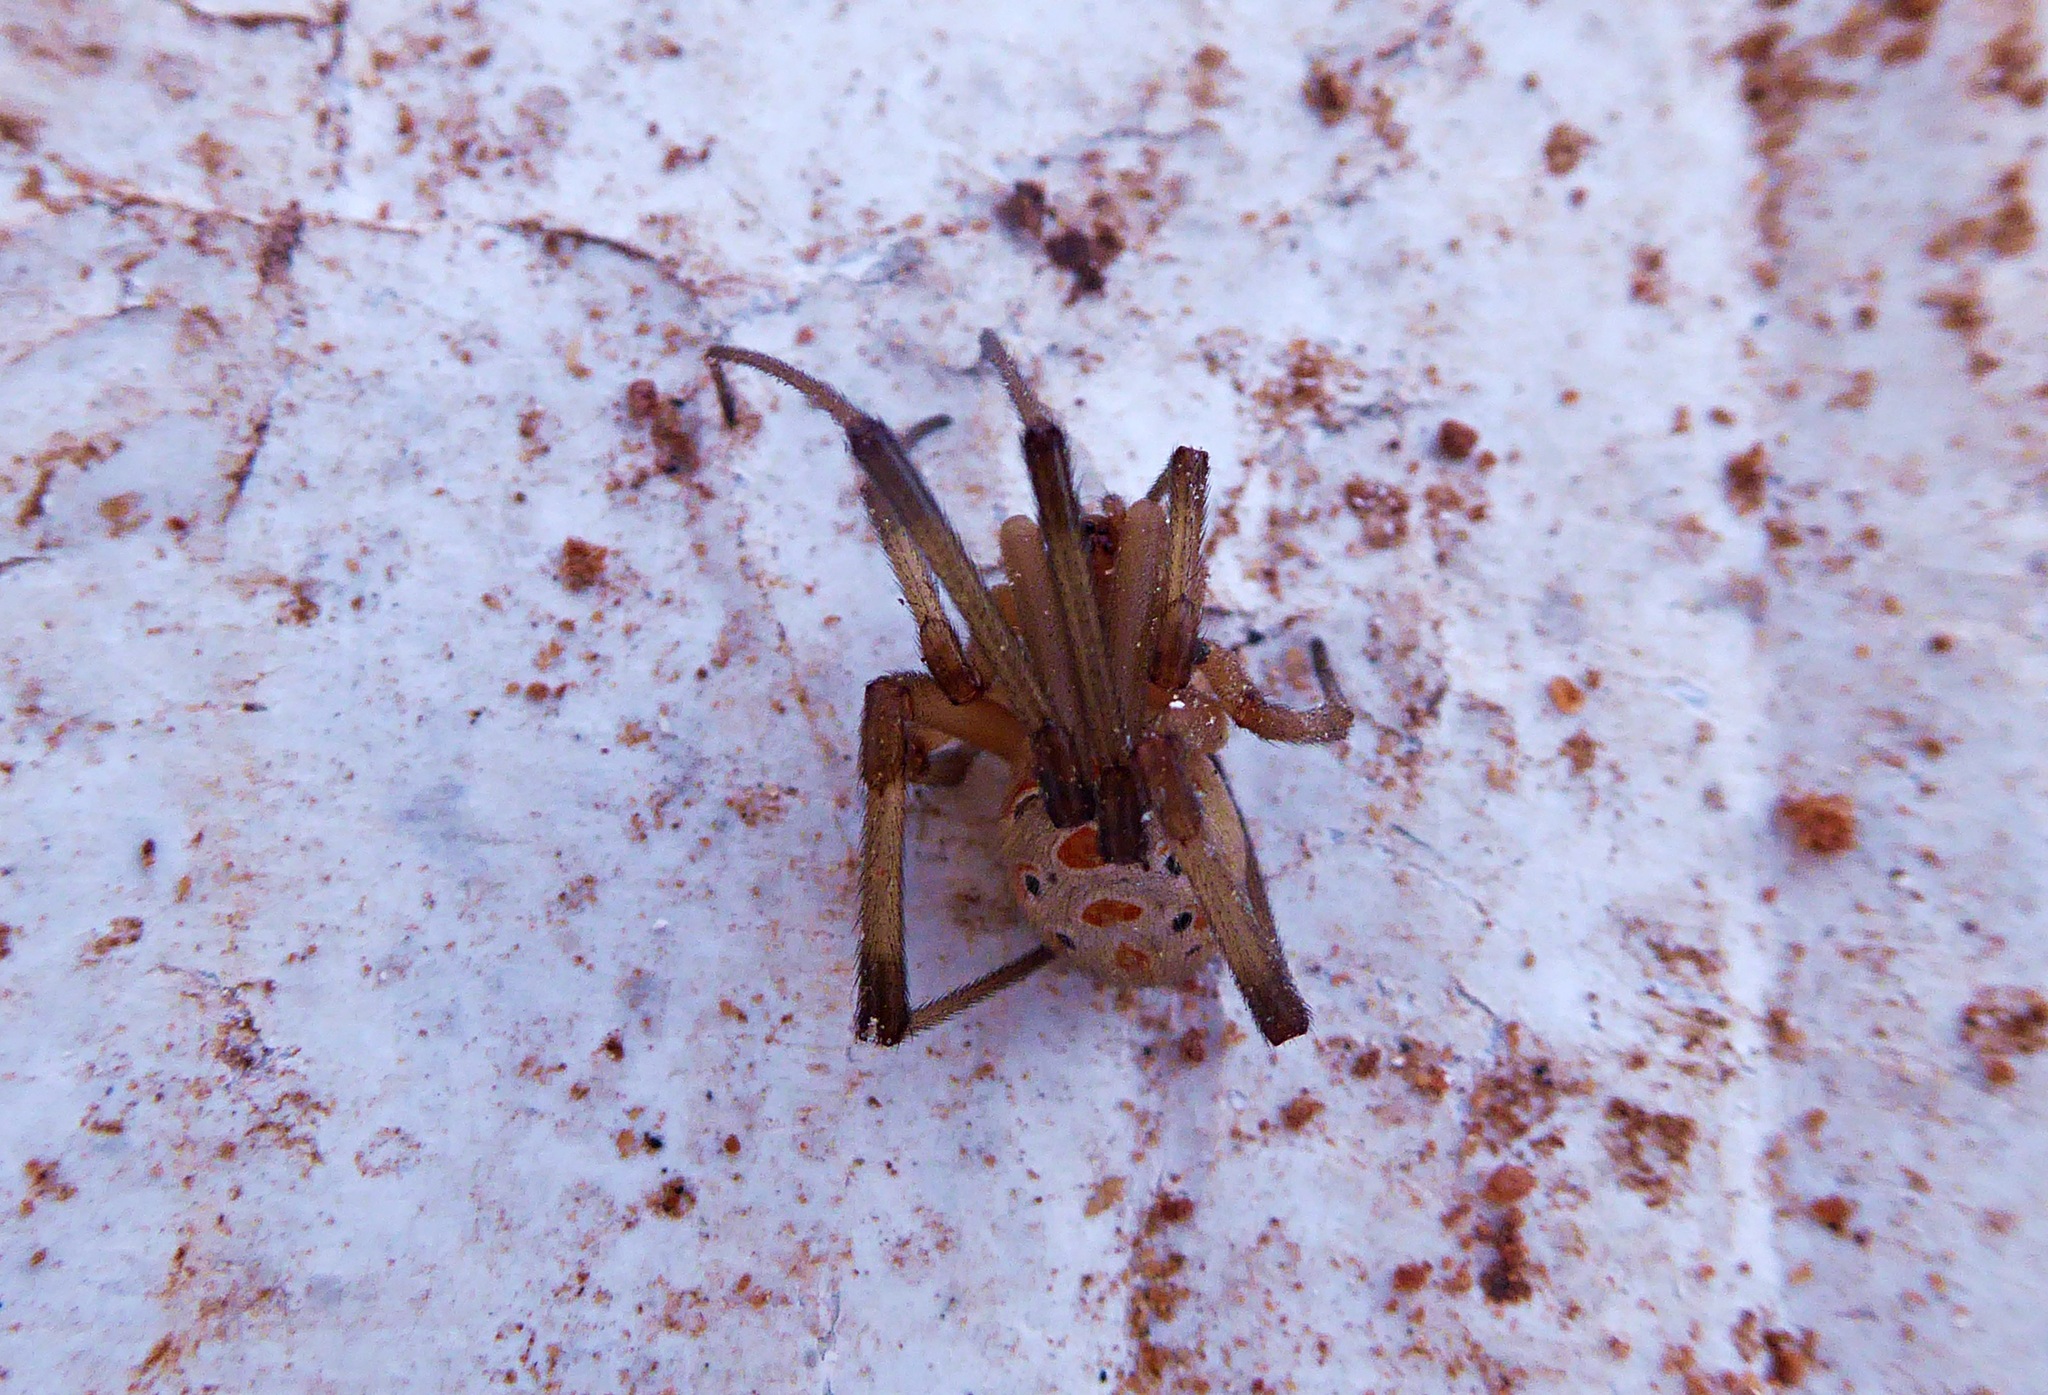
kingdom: Animalia
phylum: Arthropoda
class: Arachnida
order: Araneae
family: Theridiidae
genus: Latrodectus
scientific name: Latrodectus geometricus
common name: Brown widow spider
